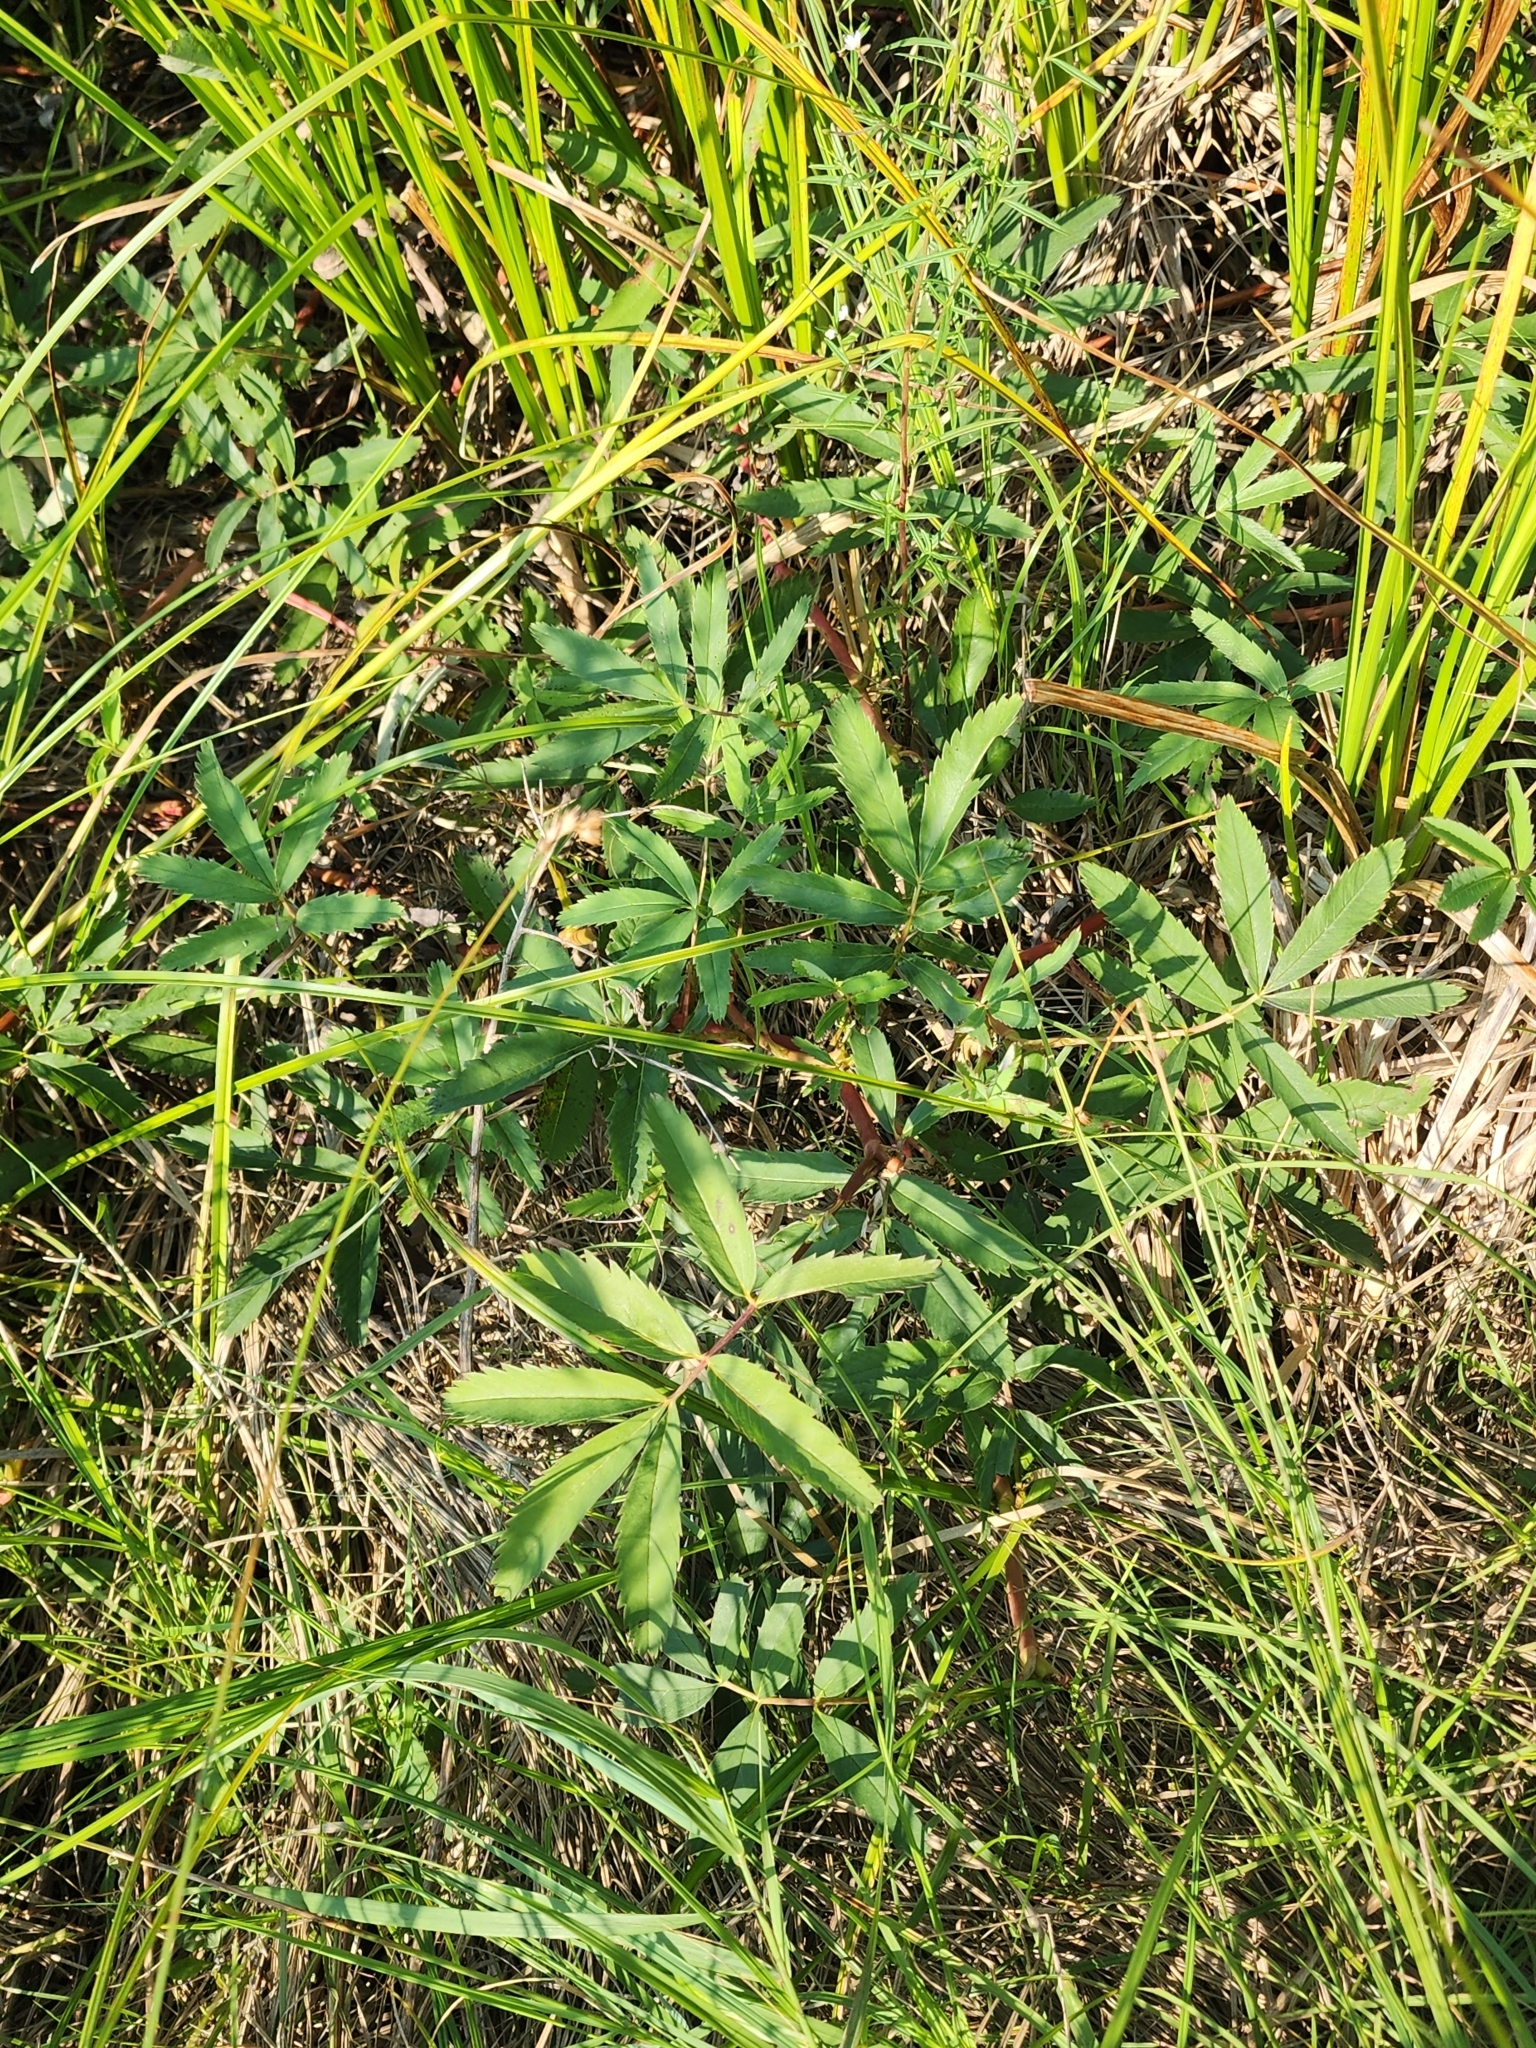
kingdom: Plantae
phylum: Tracheophyta
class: Magnoliopsida
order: Rosales
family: Rosaceae
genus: Comarum
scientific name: Comarum palustre
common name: Marsh cinquefoil
